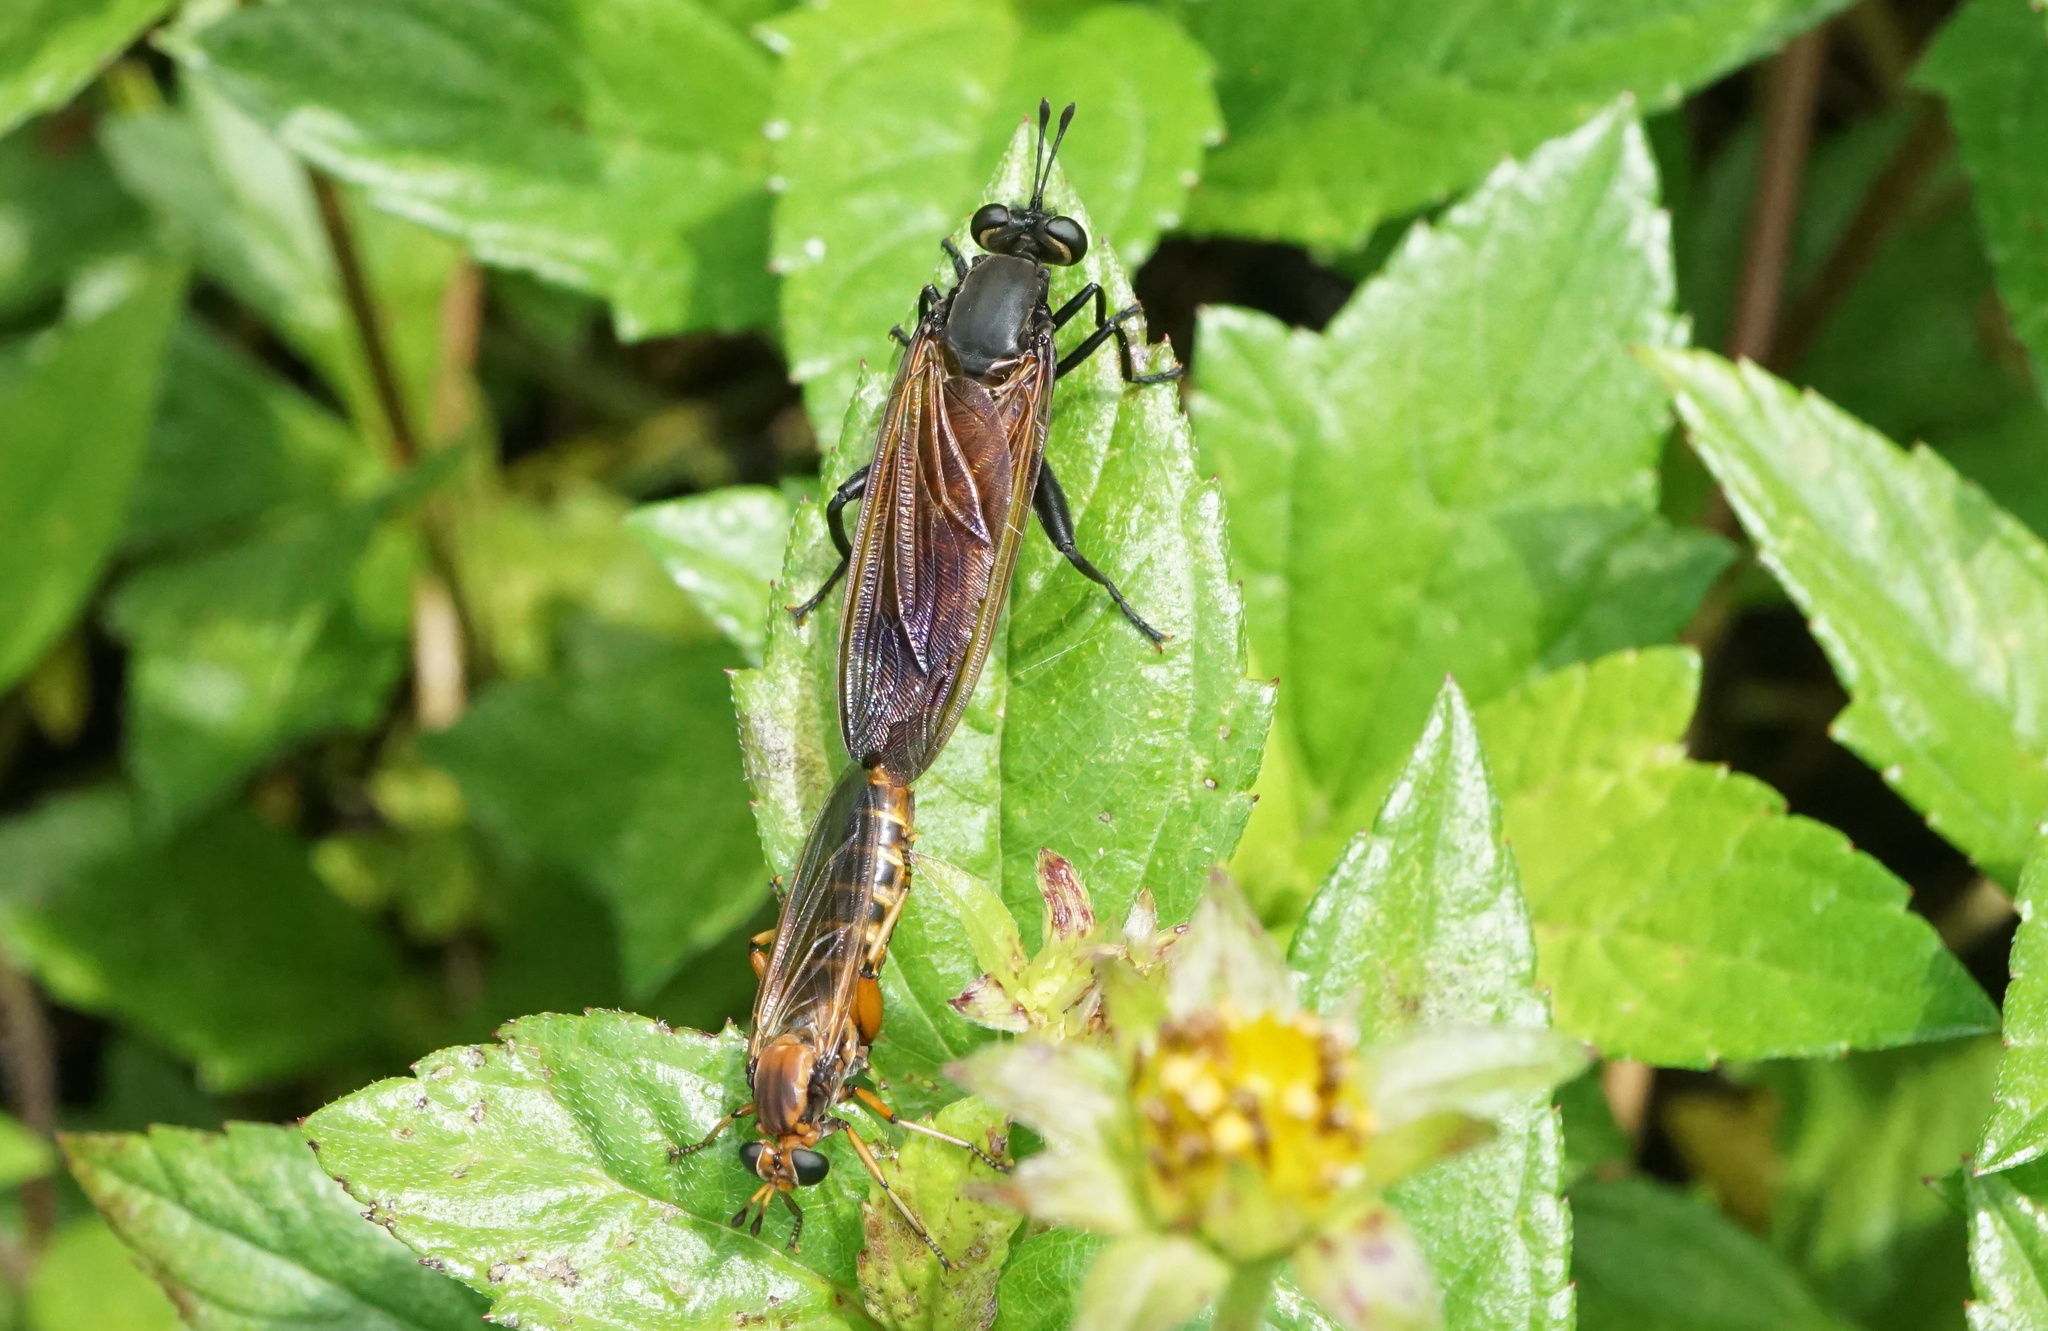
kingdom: Animalia
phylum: Arthropoda
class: Insecta
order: Diptera
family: Mydidae
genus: Mydas
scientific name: Mydas maculiventris
